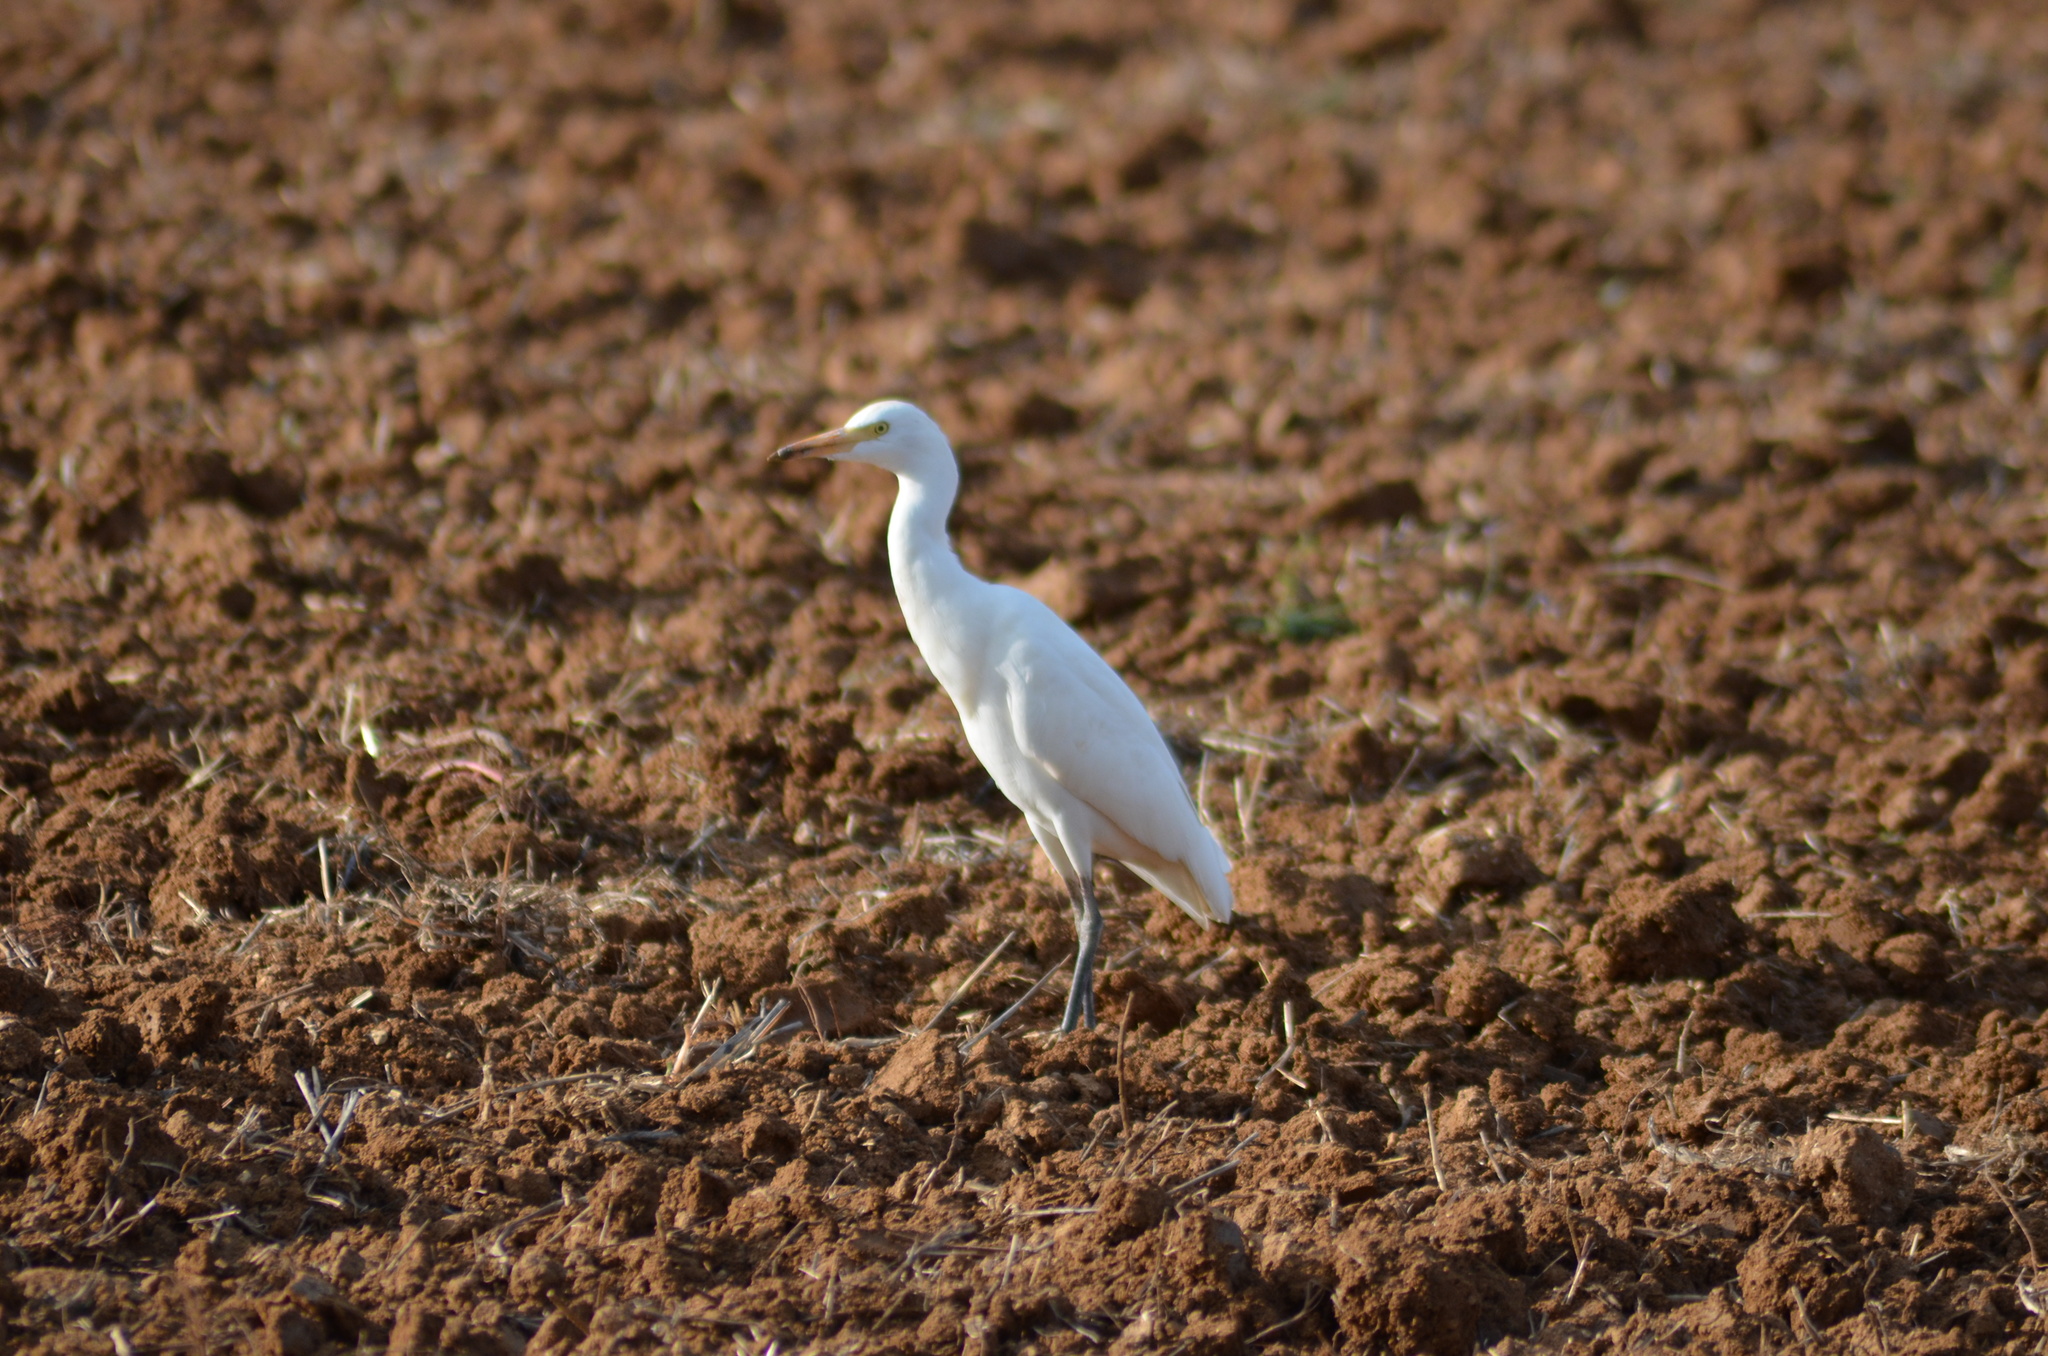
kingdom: Animalia
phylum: Chordata
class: Aves
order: Pelecaniformes
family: Ardeidae
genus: Bubulcus
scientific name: Bubulcus ibis
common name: Cattle egret
